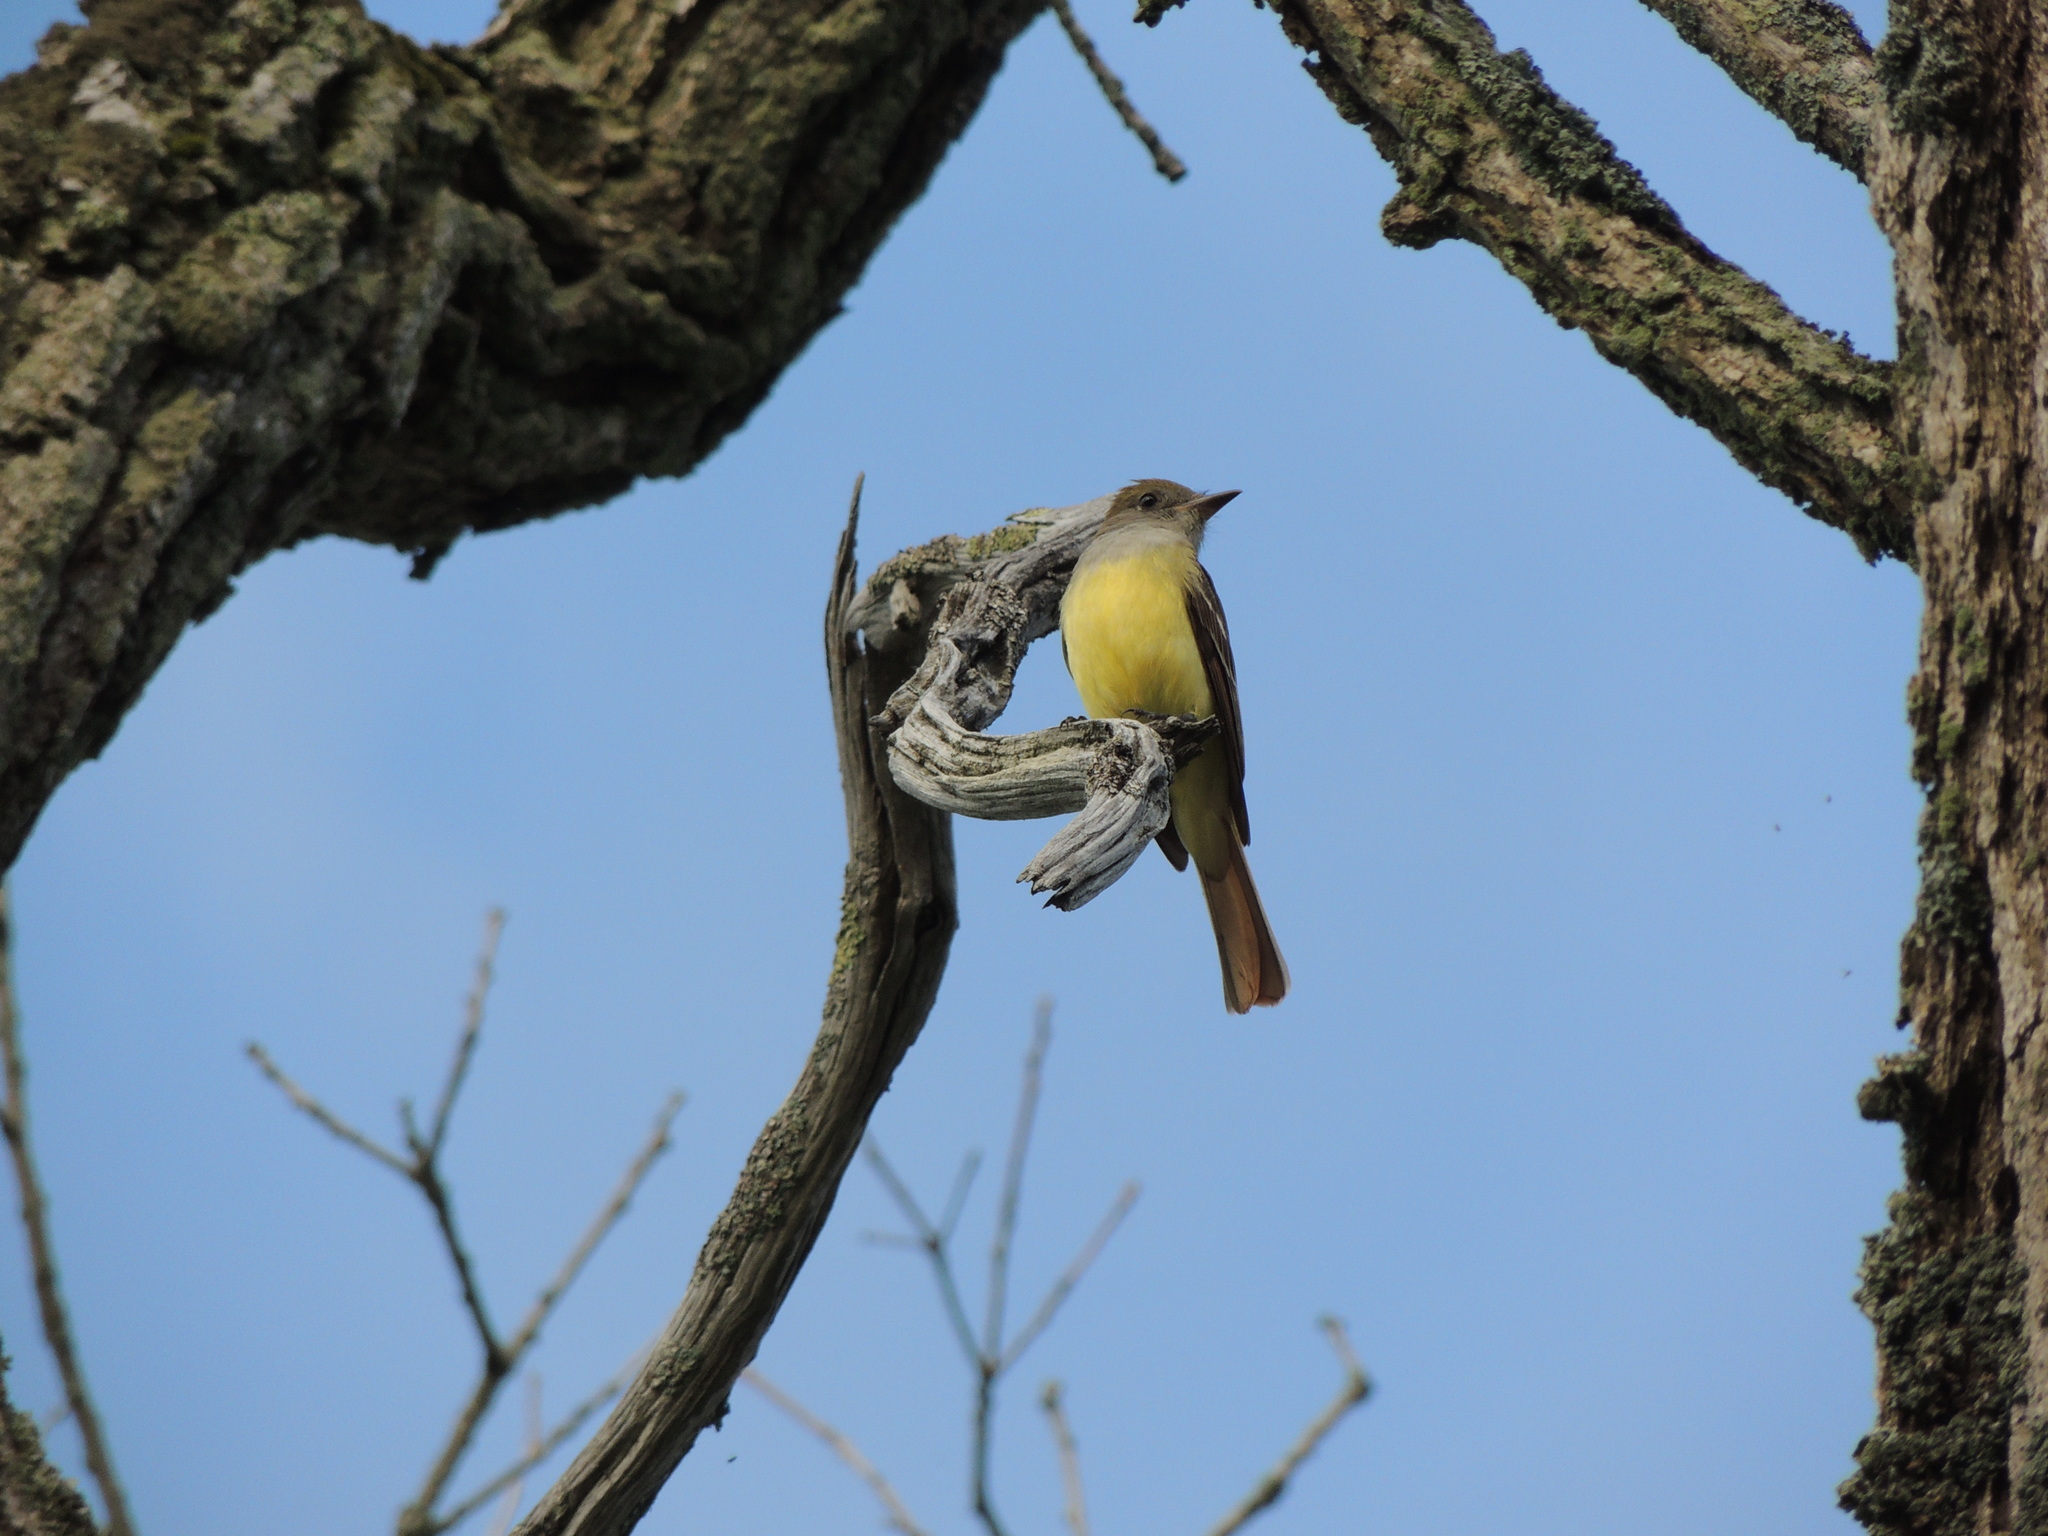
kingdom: Animalia
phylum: Chordata
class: Aves
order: Passeriformes
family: Tyrannidae
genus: Myiarchus
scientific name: Myiarchus crinitus
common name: Great crested flycatcher
